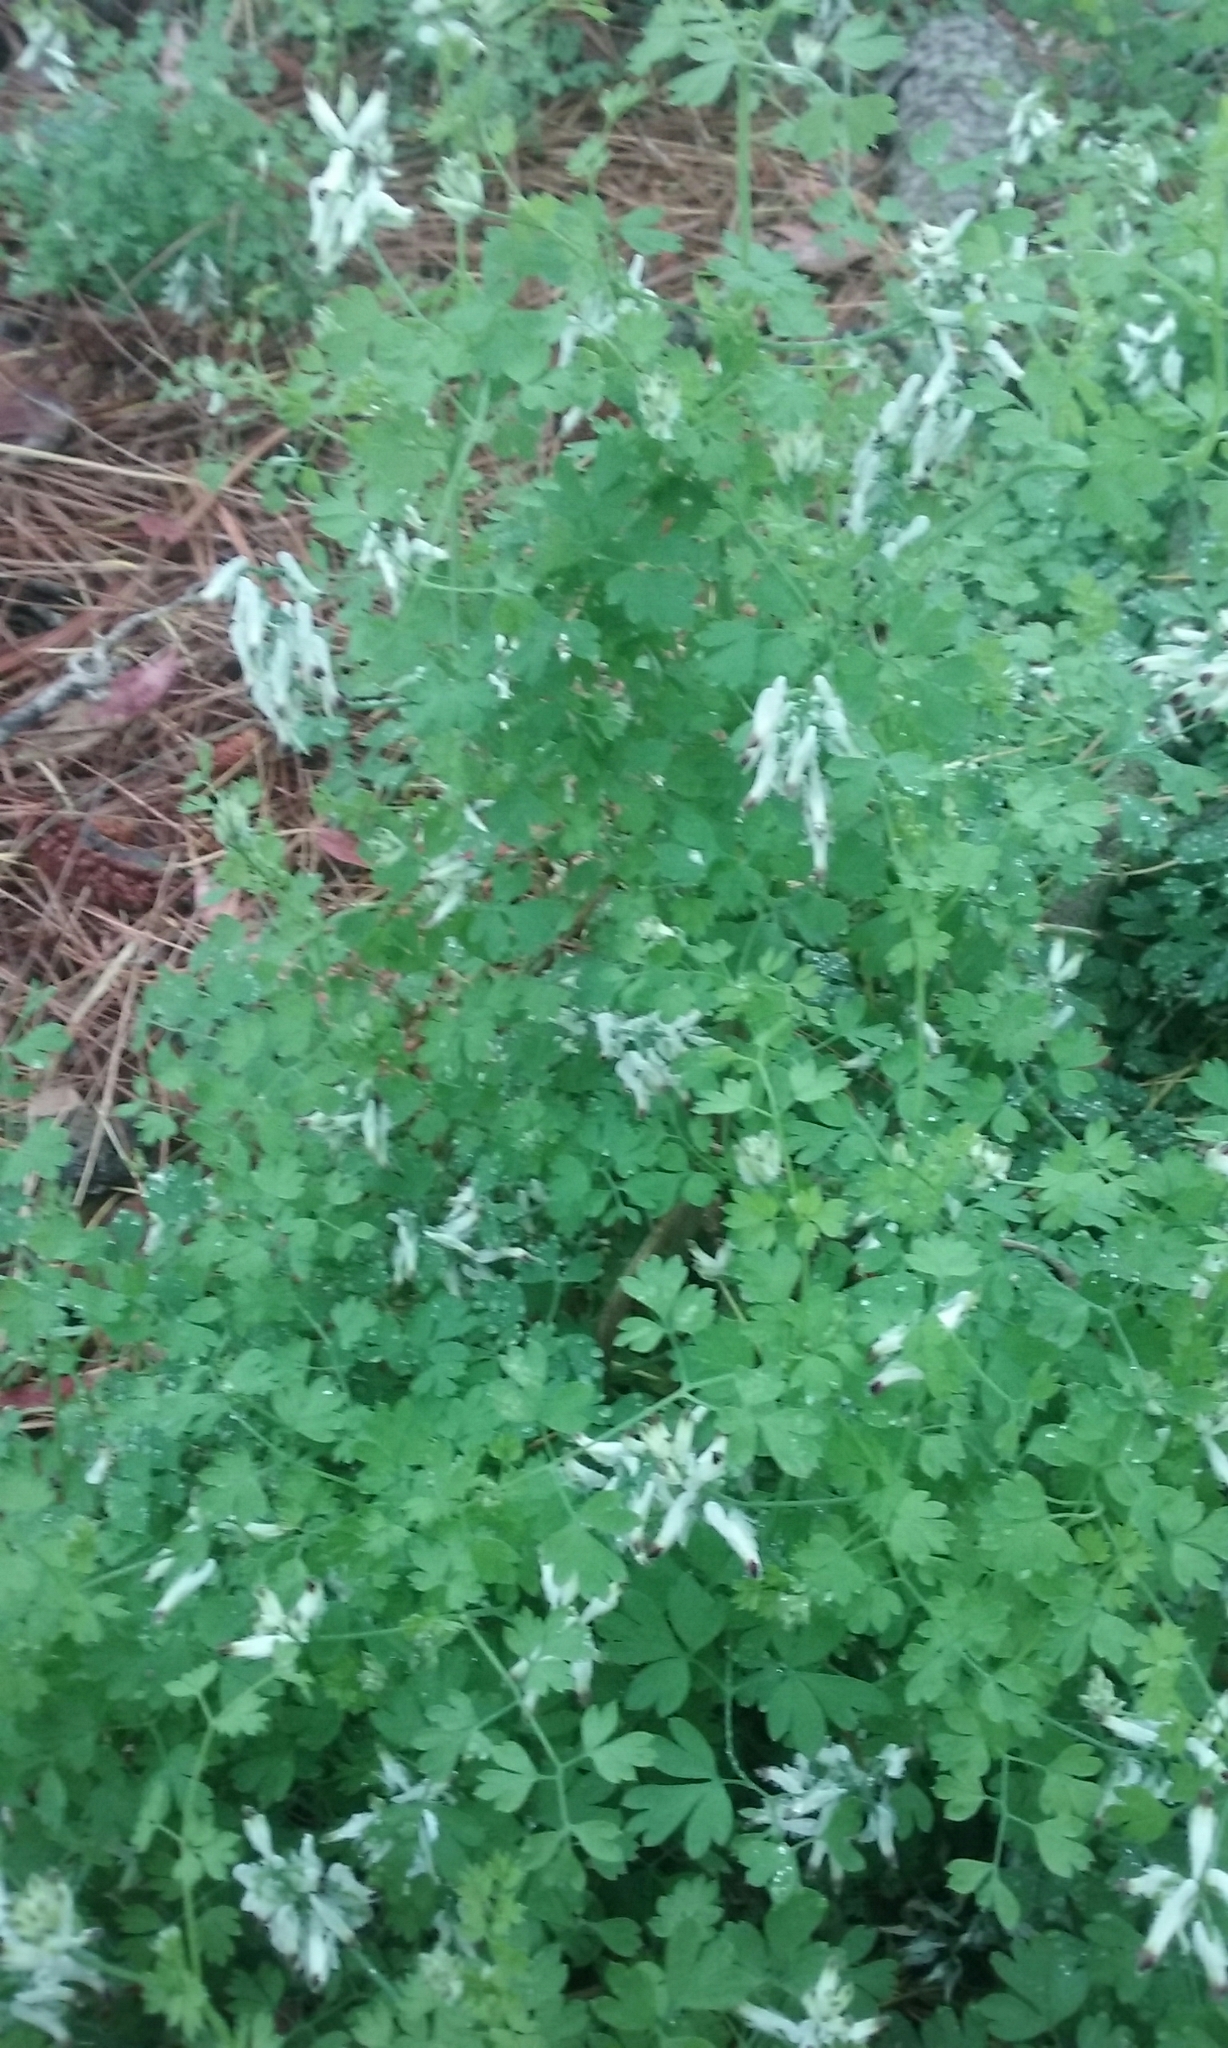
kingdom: Plantae
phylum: Tracheophyta
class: Magnoliopsida
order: Ranunculales
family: Papaveraceae
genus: Fumaria
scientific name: Fumaria capreolata
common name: White ramping-fumitory
